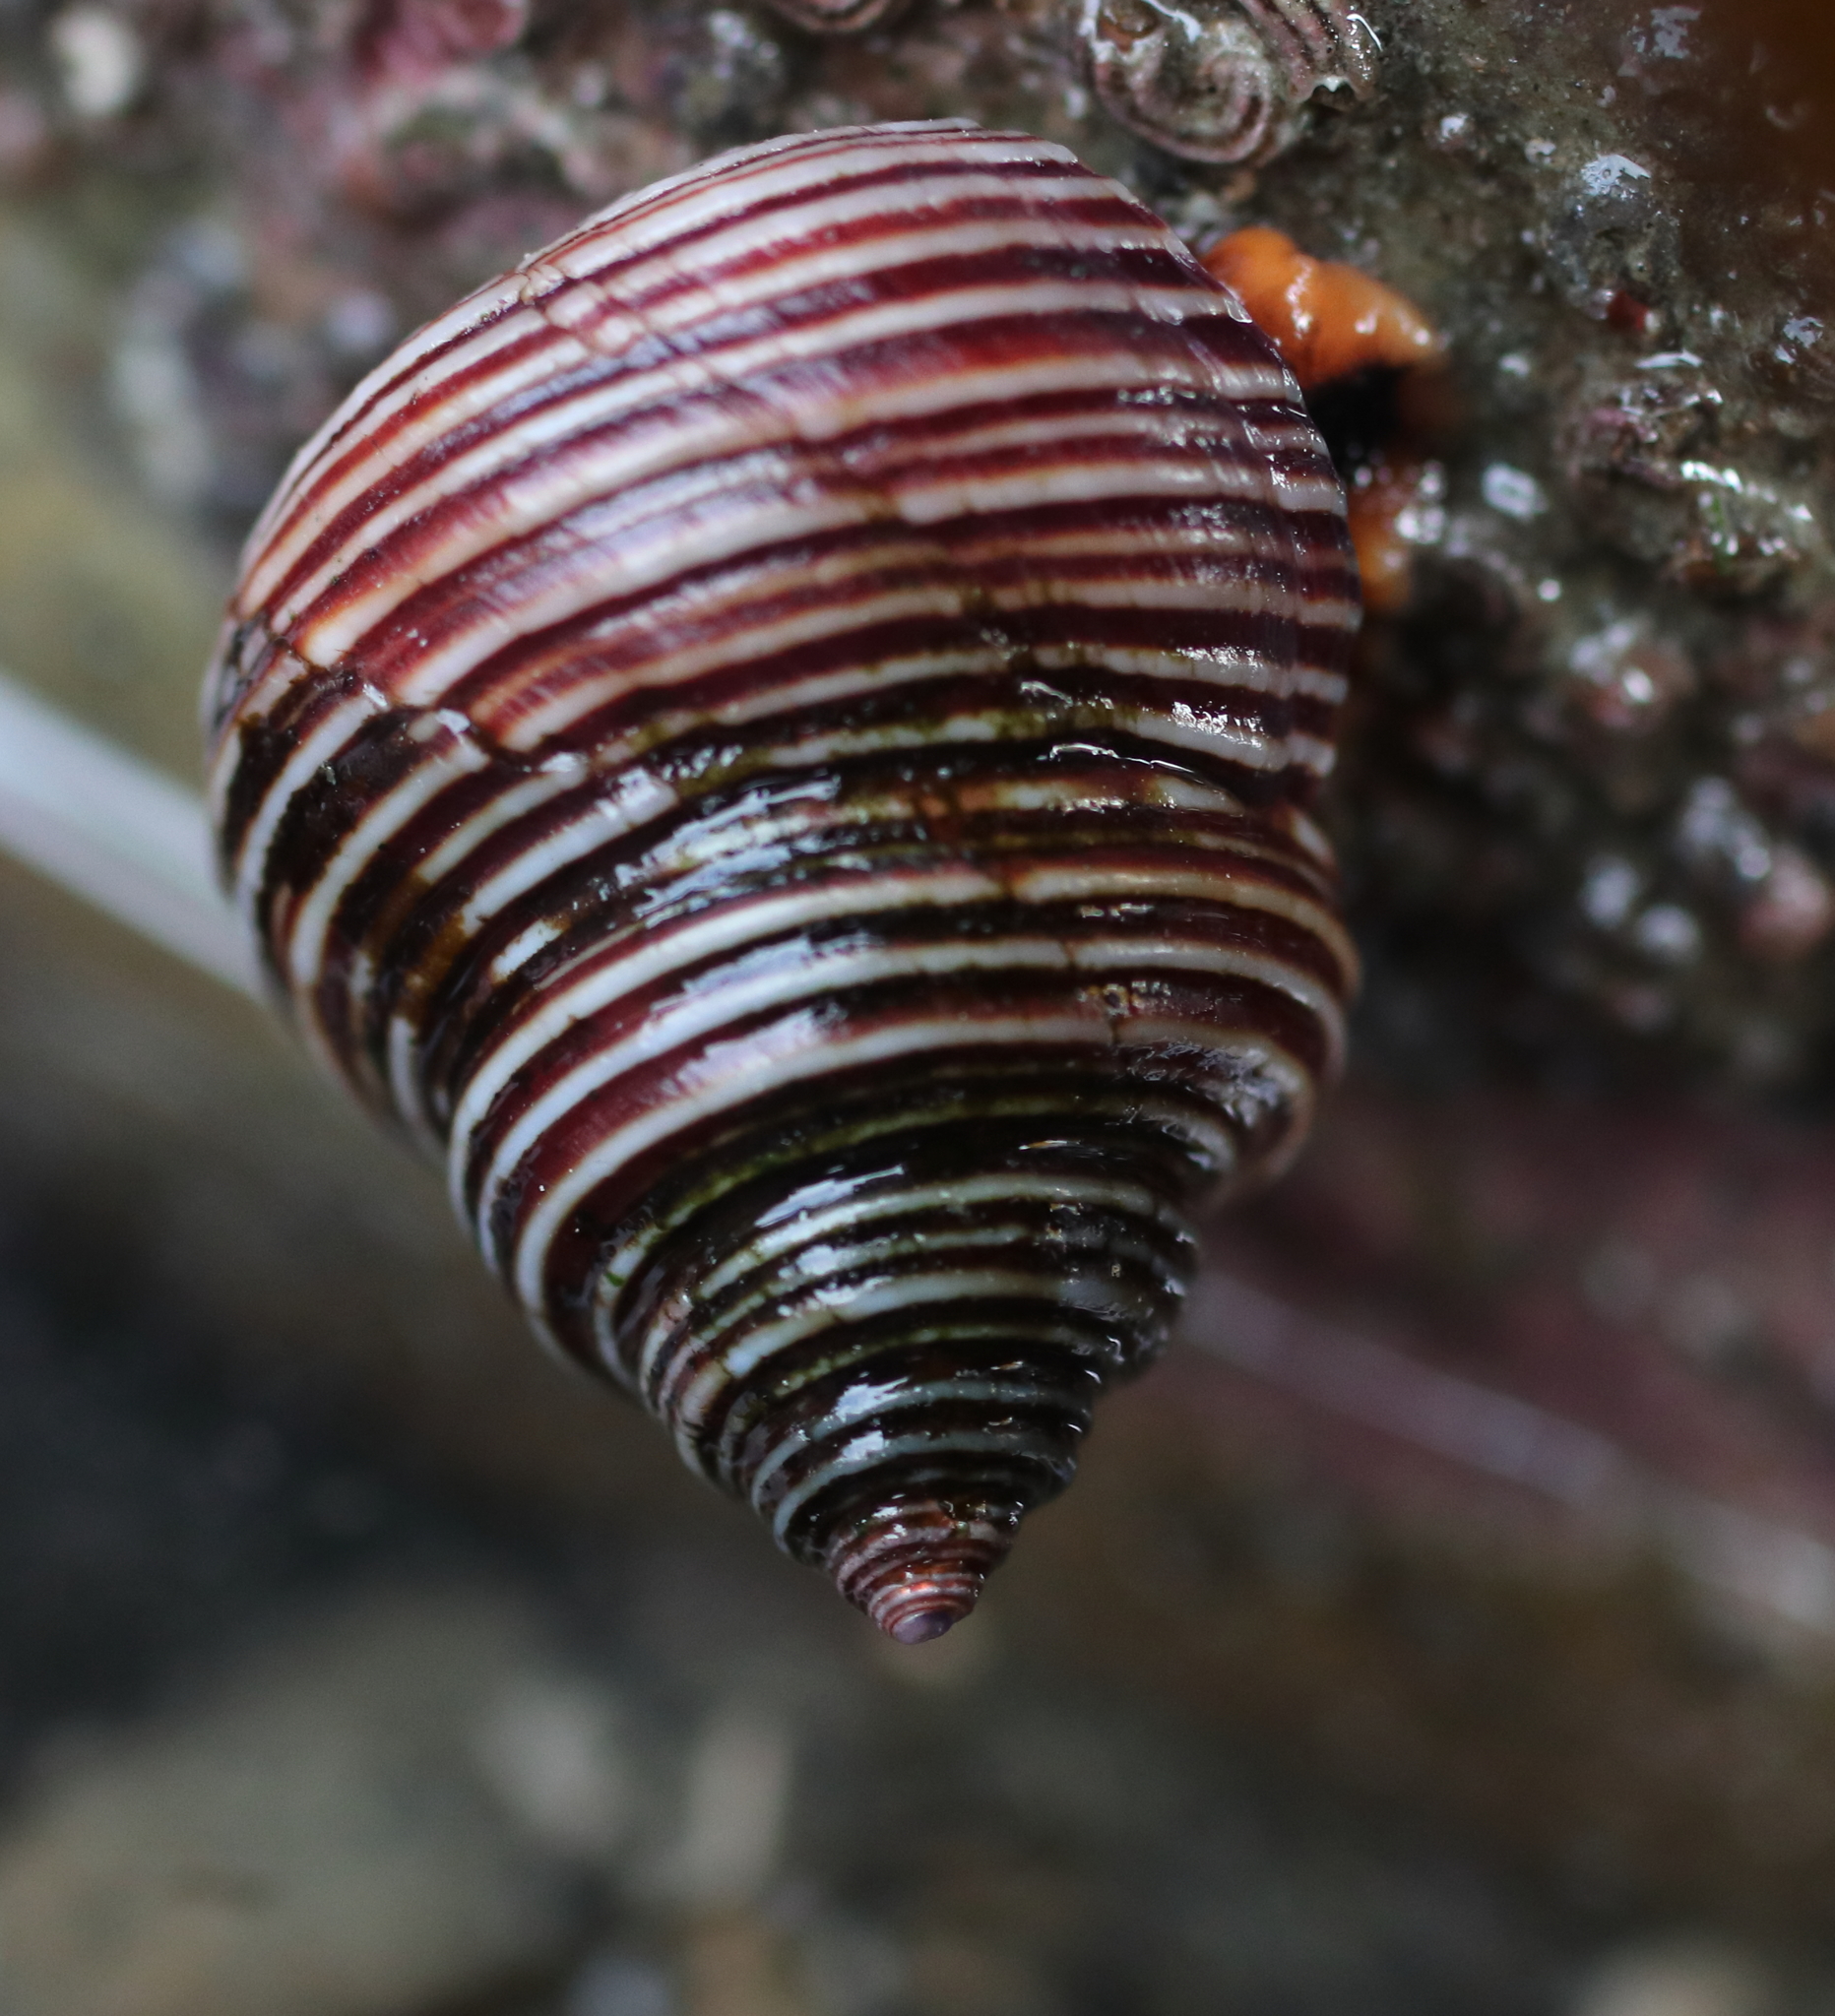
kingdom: Animalia
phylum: Mollusca
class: Gastropoda
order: Trochida
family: Calliostomatidae
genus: Calliostoma
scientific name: Calliostoma ligatum
